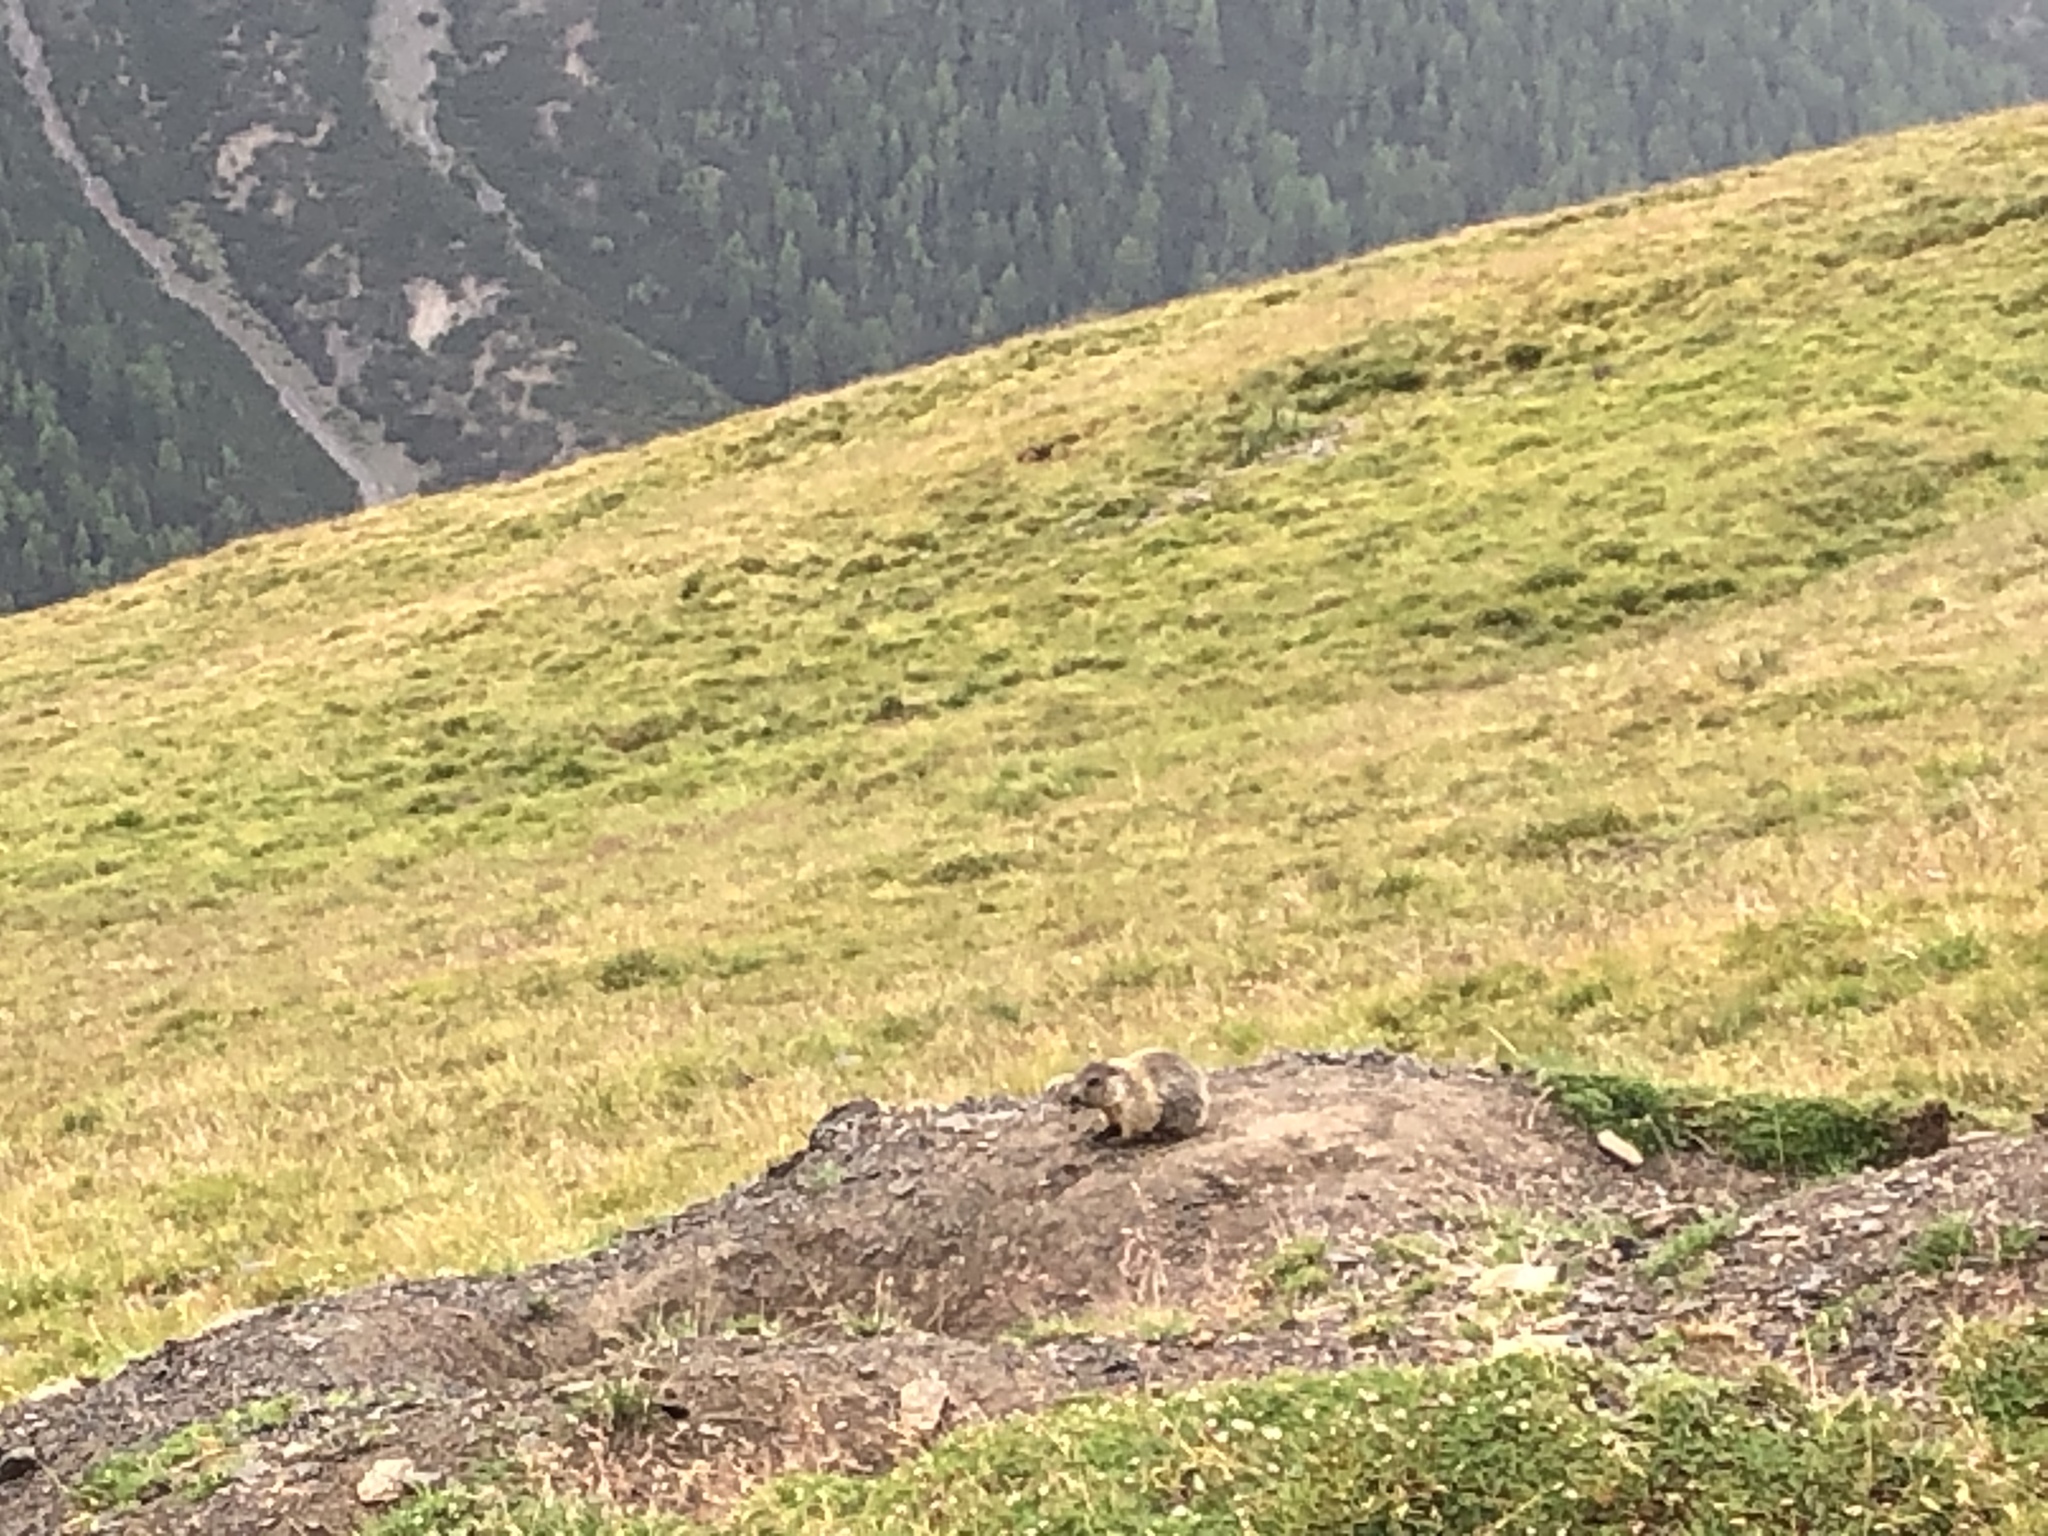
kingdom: Animalia
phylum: Chordata
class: Mammalia
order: Rodentia
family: Sciuridae
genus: Marmota
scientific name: Marmota marmota
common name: Alpine marmot
